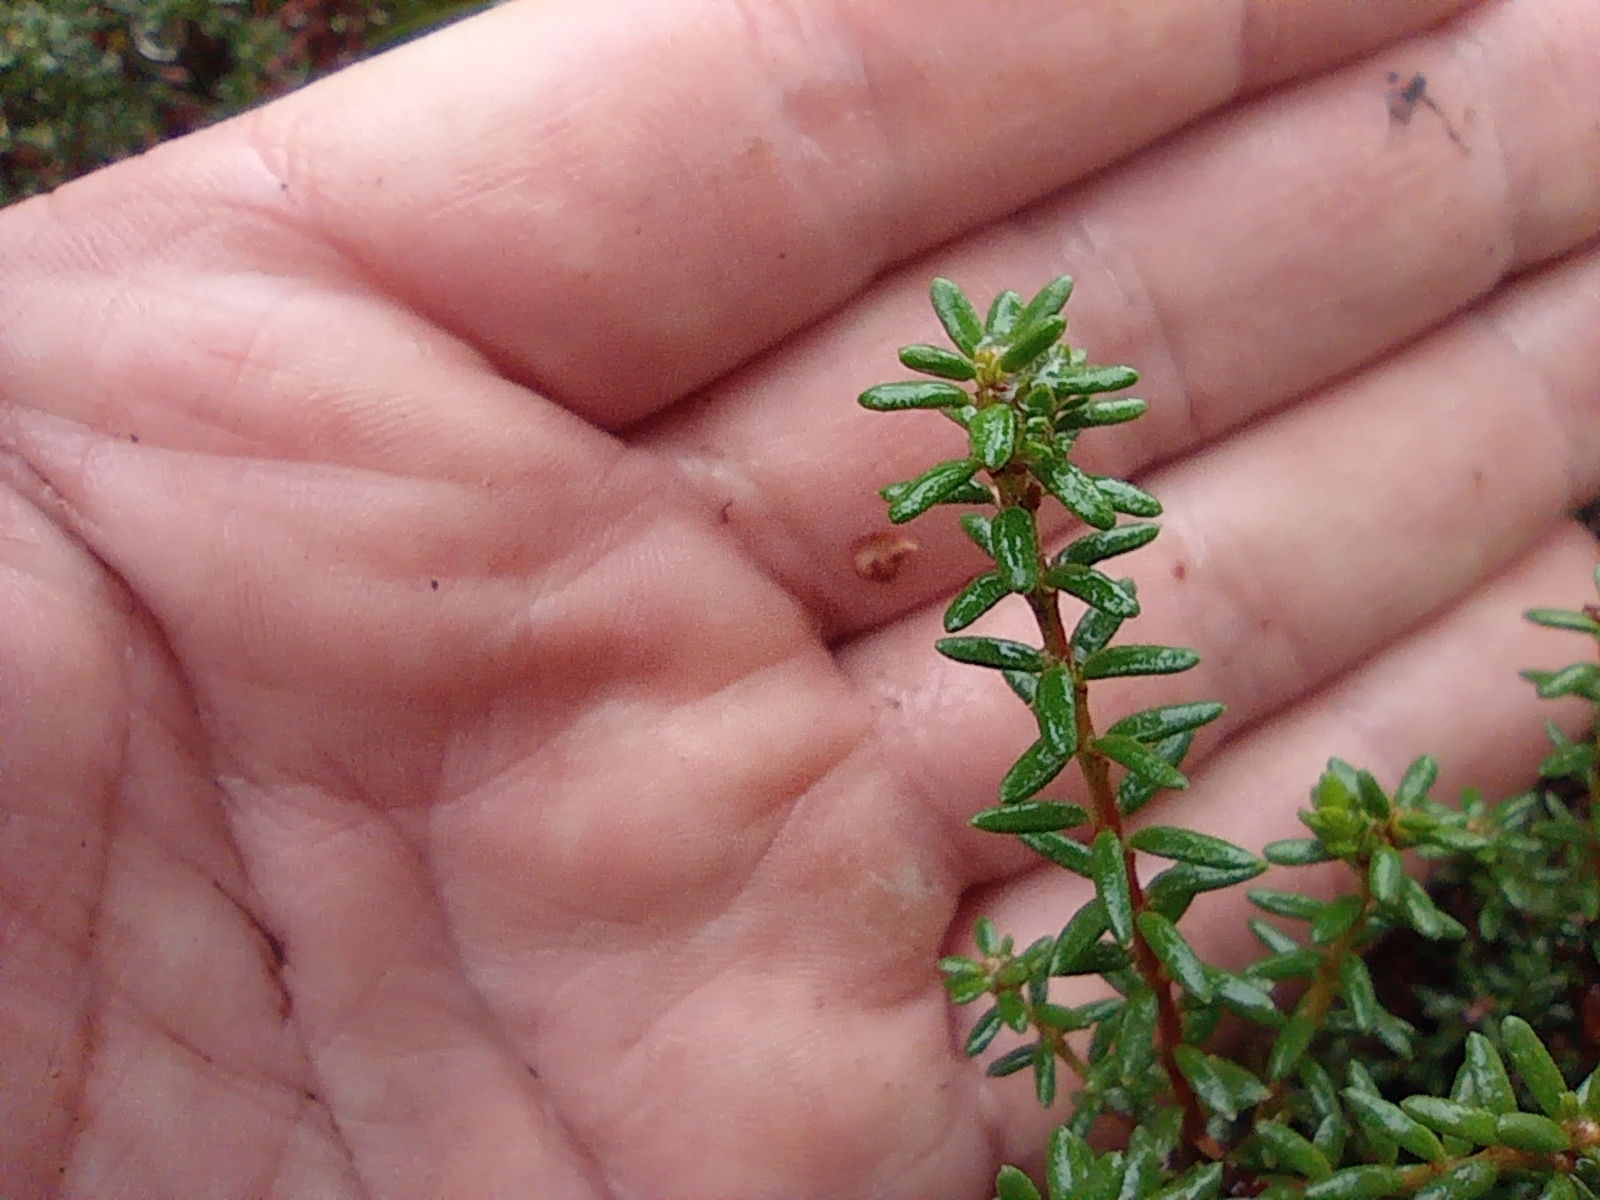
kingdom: Plantae
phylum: Tracheophyta
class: Magnoliopsida
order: Ericales
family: Ericaceae
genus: Empetrum
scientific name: Empetrum nigrum
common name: Black crowberry
